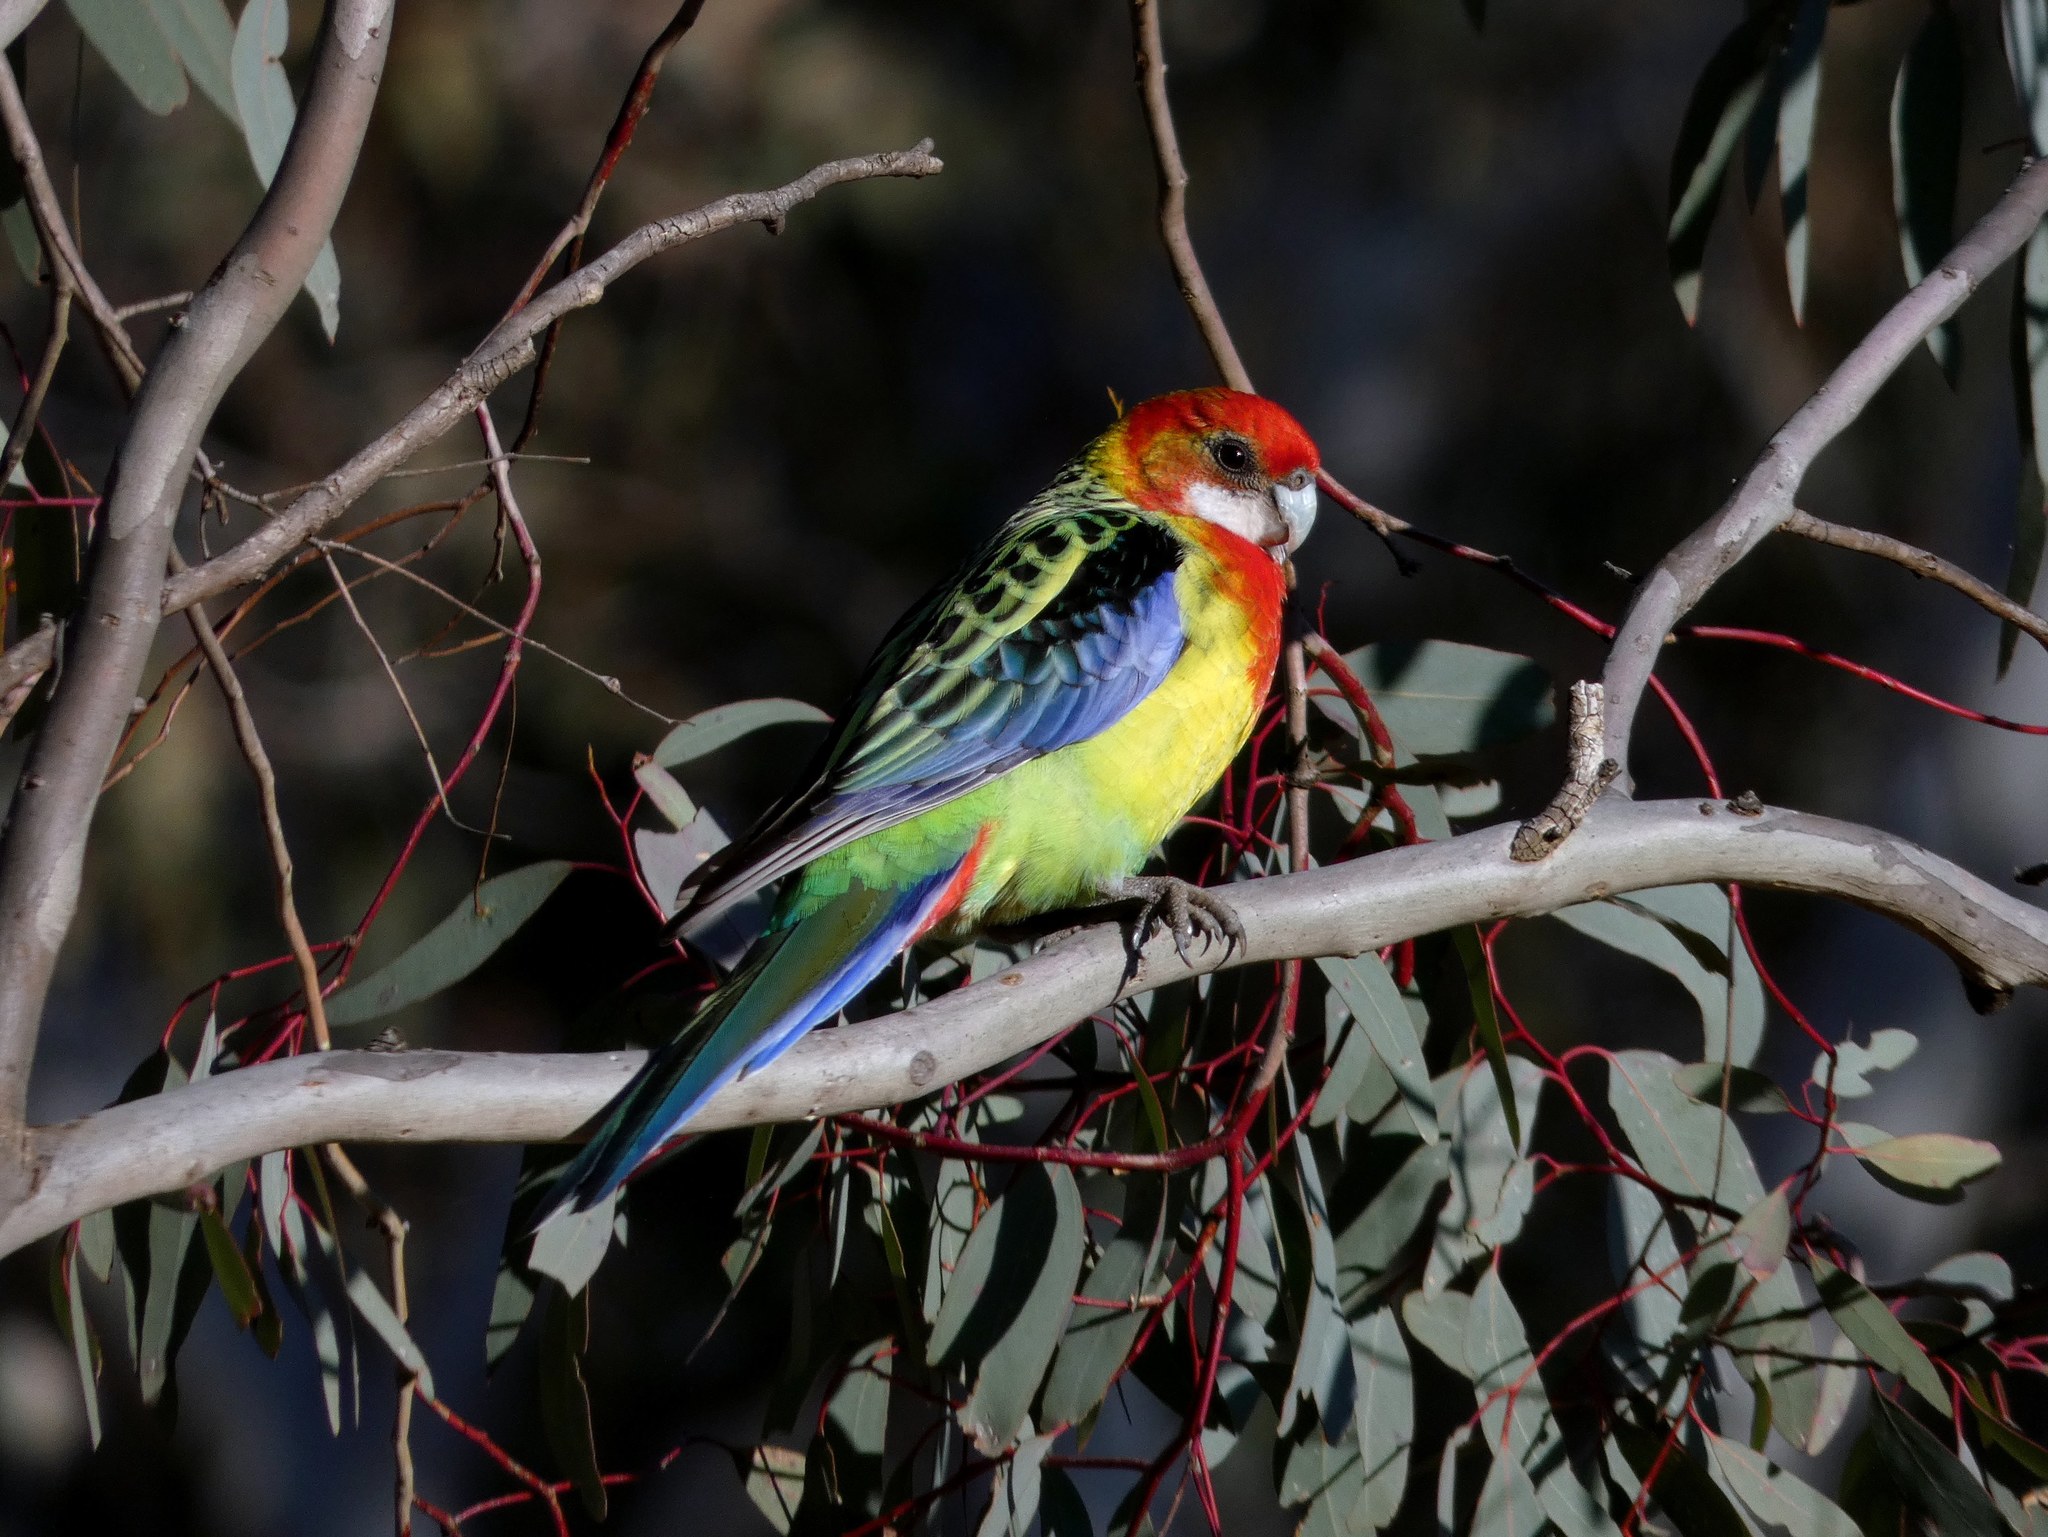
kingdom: Animalia
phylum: Chordata
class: Aves
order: Psittaciformes
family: Psittacidae
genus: Platycercus
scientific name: Platycercus eximius
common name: Eastern rosella
